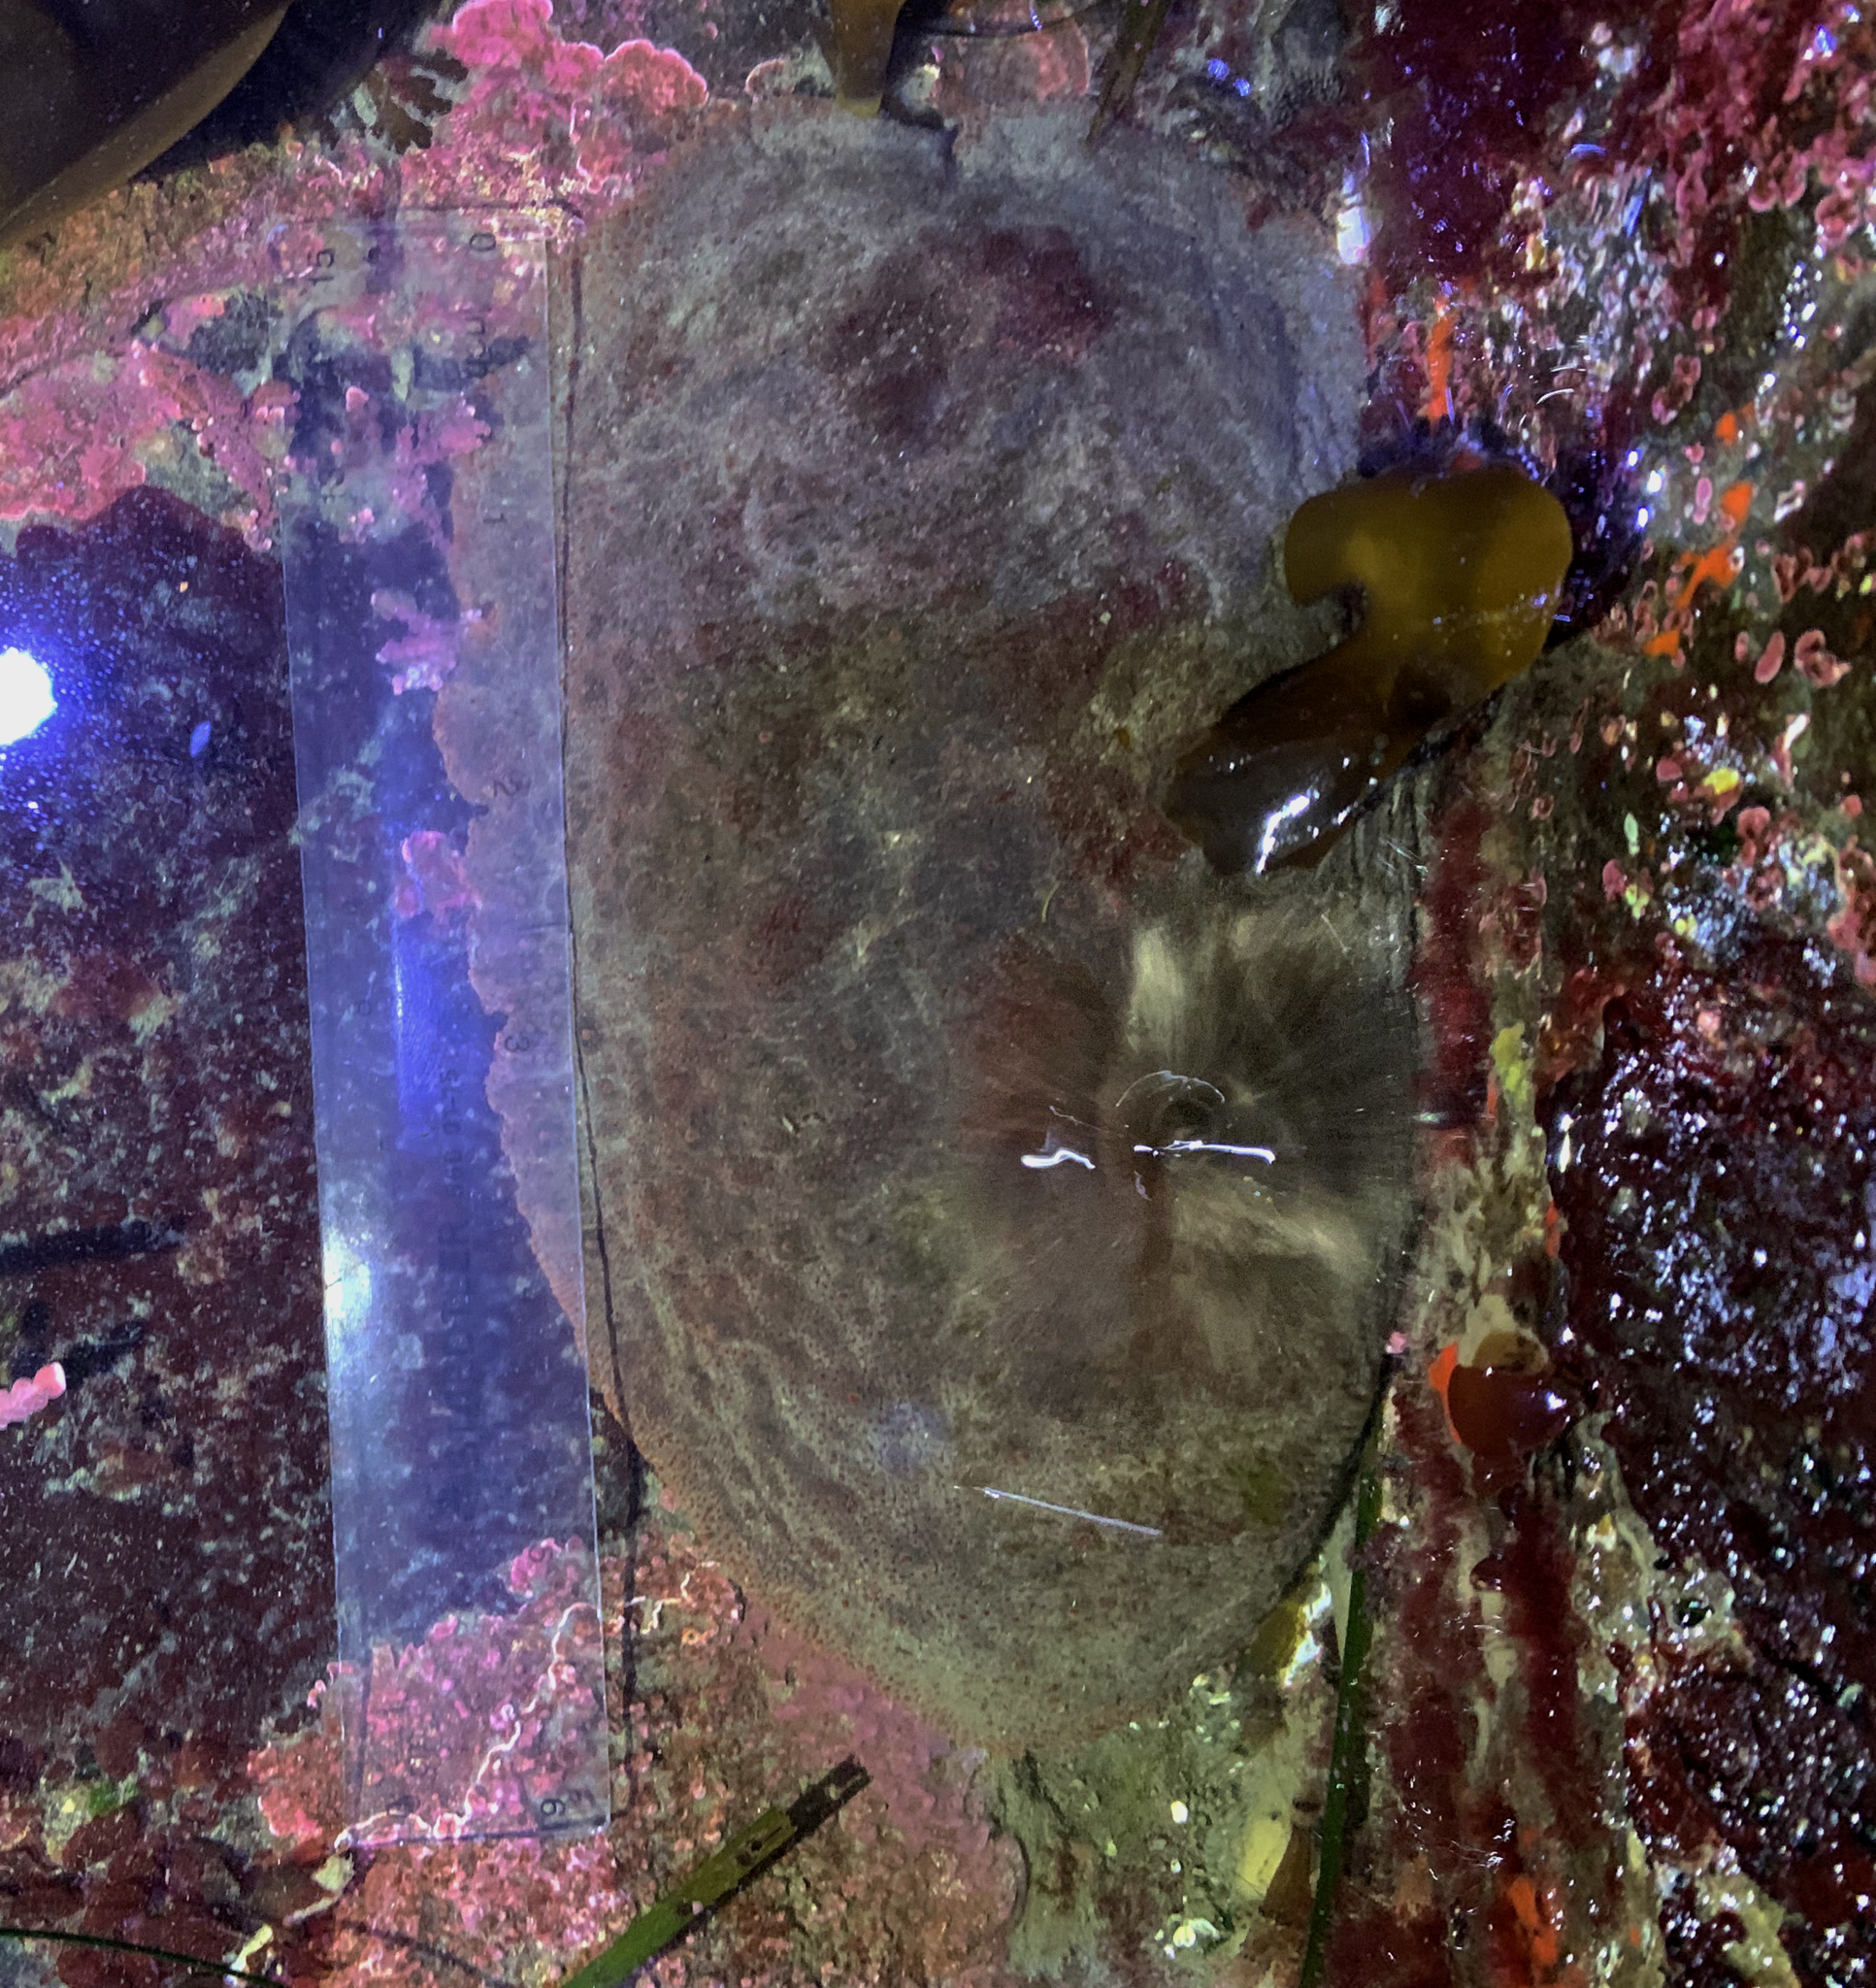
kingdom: Animalia
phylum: Mollusca
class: Polyplacophora
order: Chitonida
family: Acanthochitonidae
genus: Cryptochiton
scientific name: Cryptochiton stelleri
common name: Giant pacific chiton
